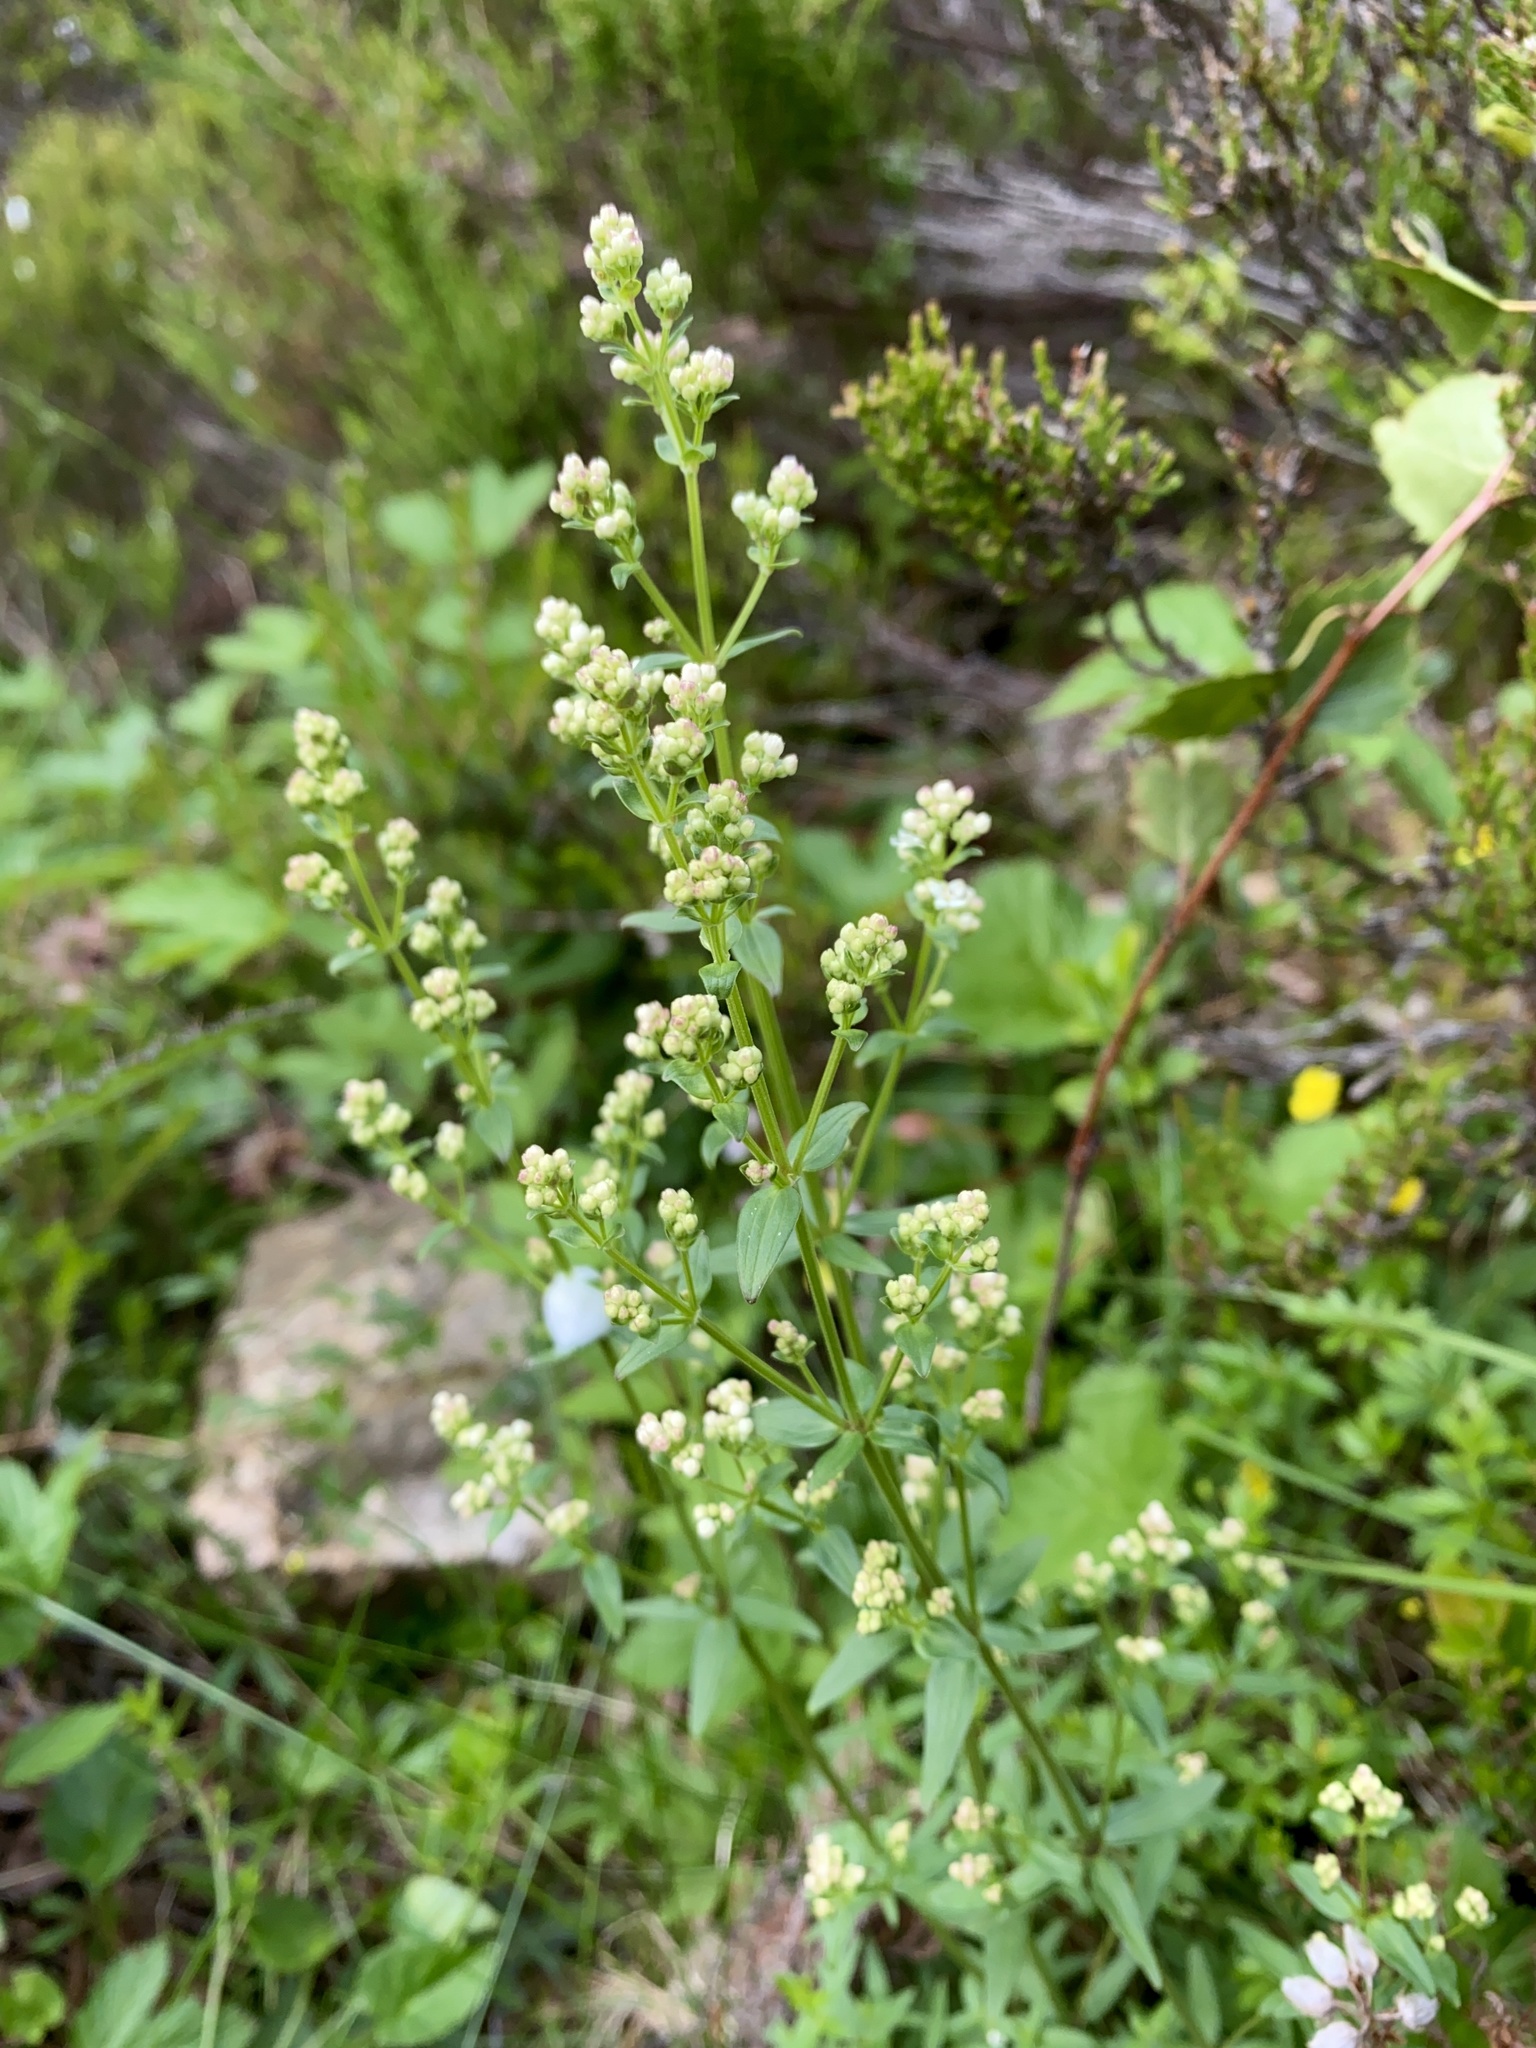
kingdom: Plantae
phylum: Tracheophyta
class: Magnoliopsida
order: Gentianales
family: Rubiaceae
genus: Galium
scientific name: Galium boreale
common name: Northern bedstraw
